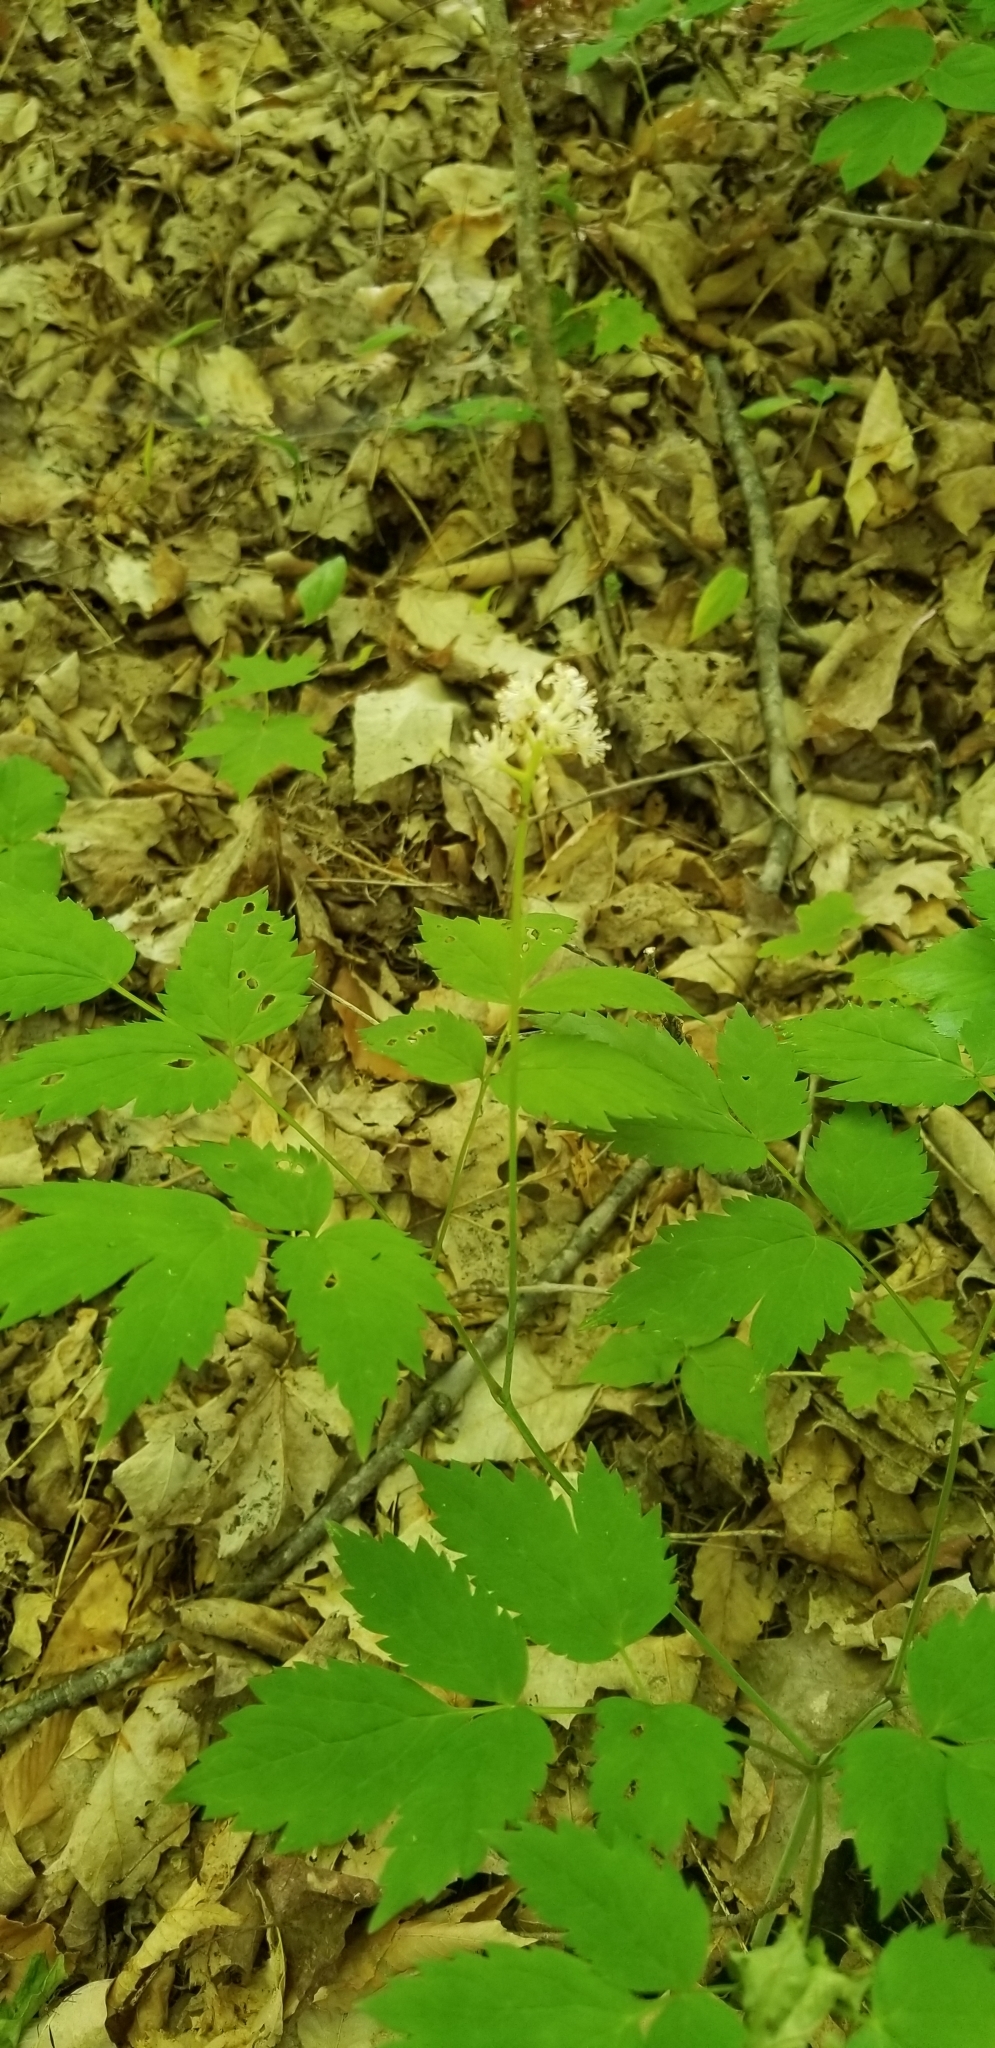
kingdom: Plantae
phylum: Tracheophyta
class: Magnoliopsida
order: Ranunculales
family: Ranunculaceae
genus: Actaea
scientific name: Actaea pachypoda
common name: Doll's-eyes
